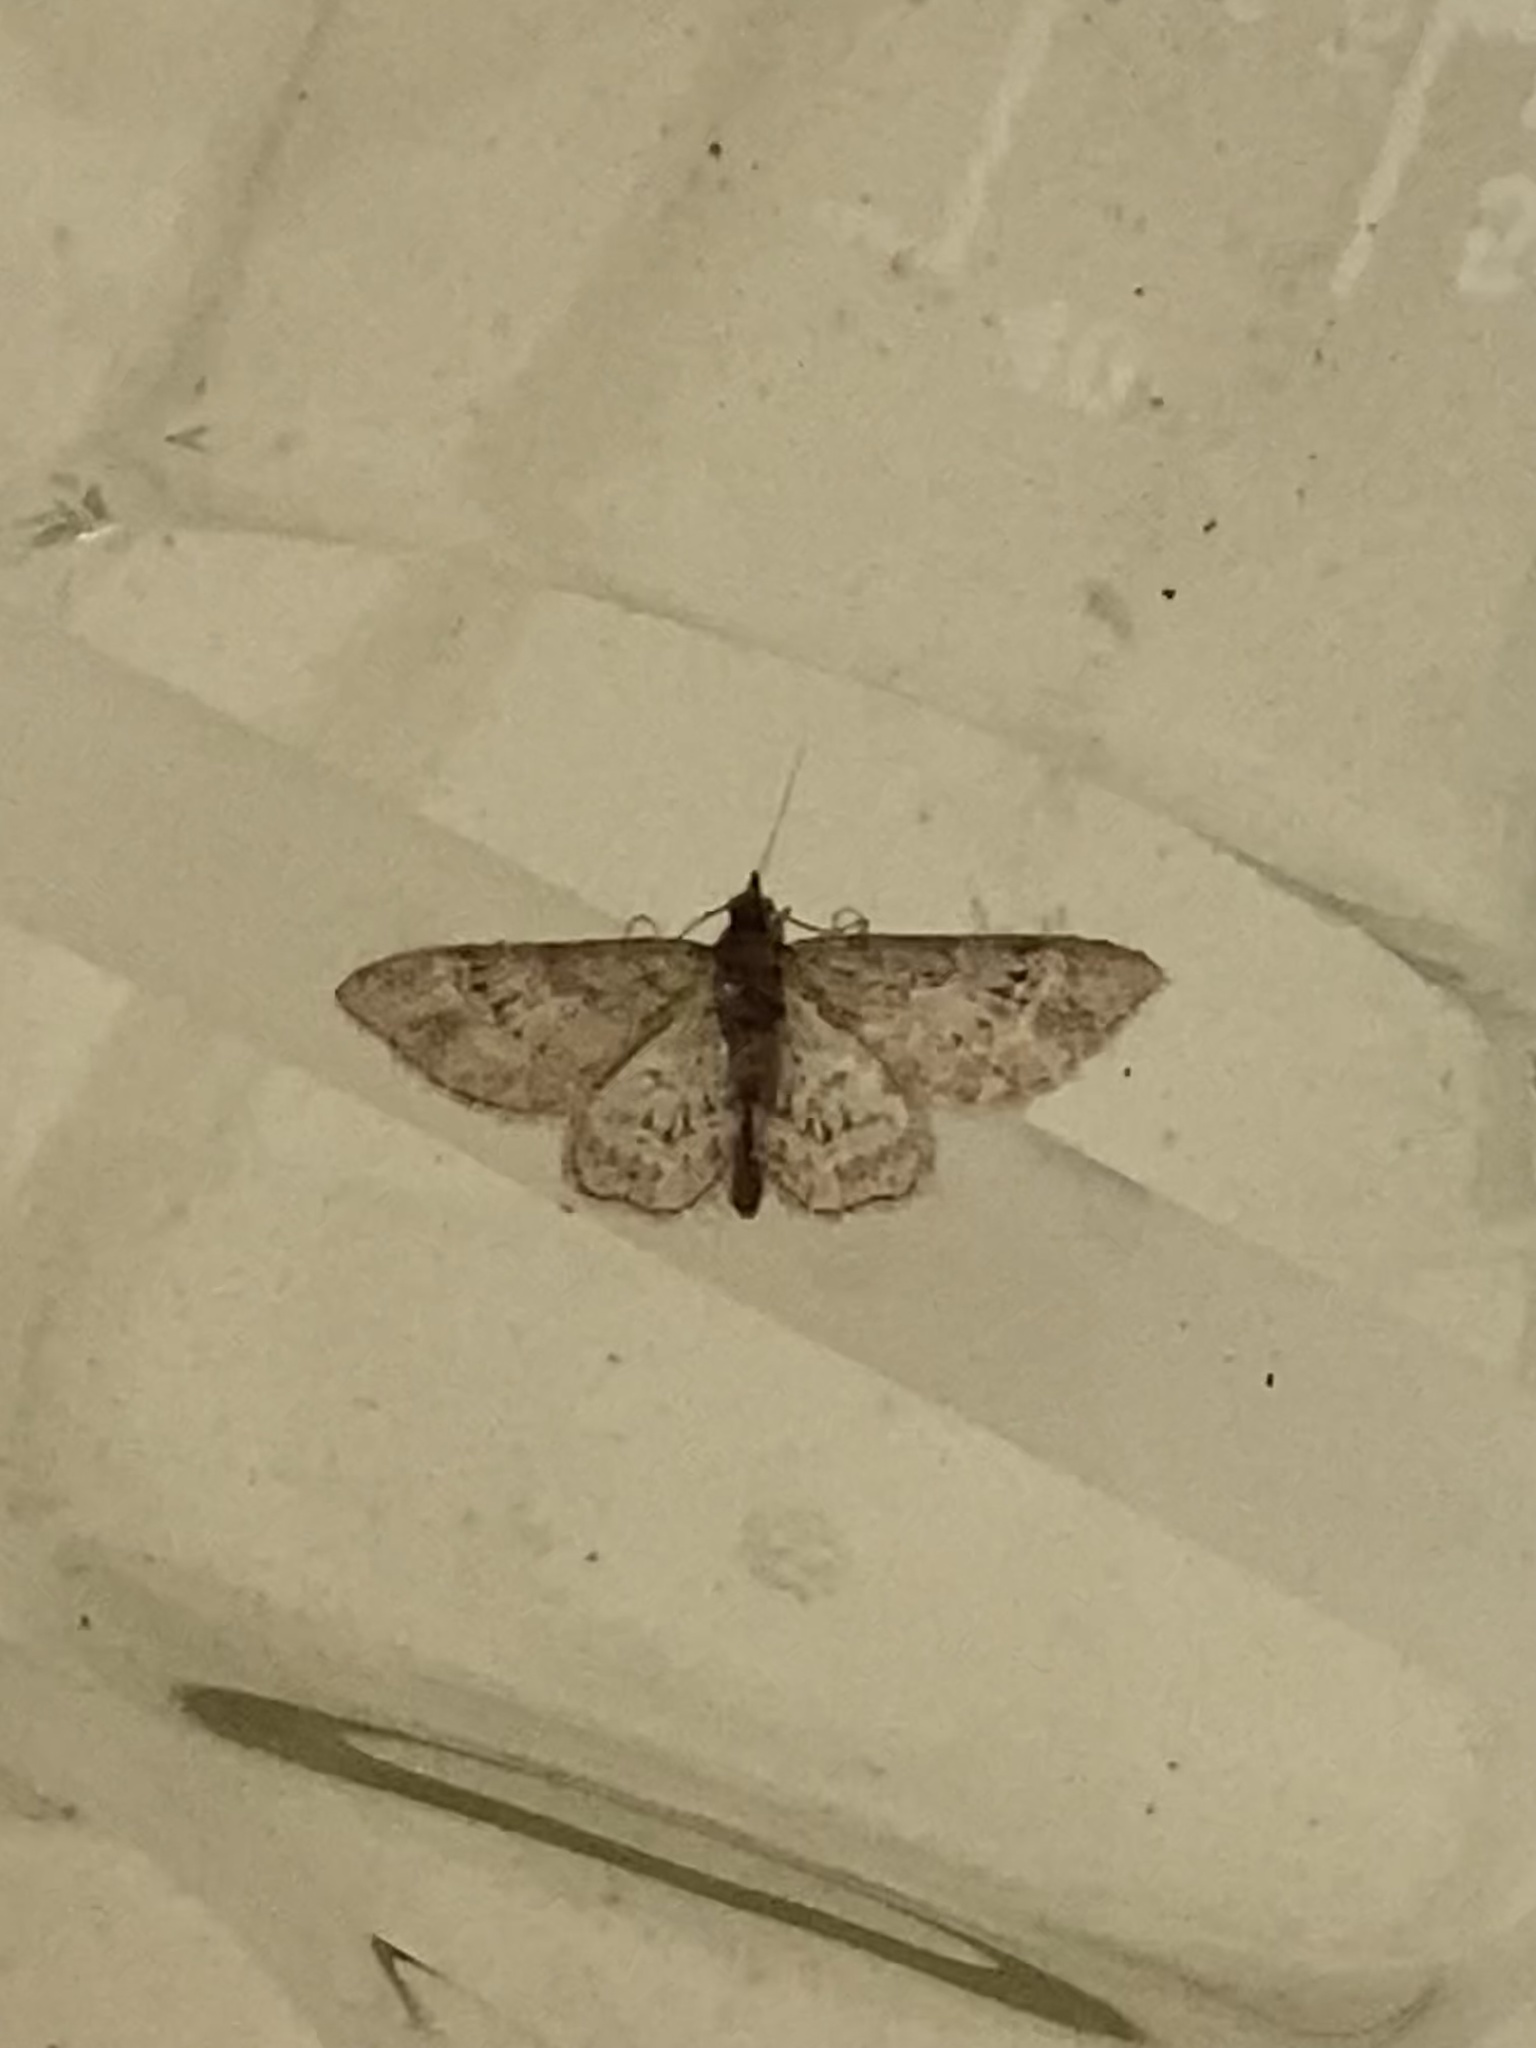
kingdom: Animalia
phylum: Arthropoda
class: Insecta
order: Lepidoptera
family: Geometridae
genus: Gymnoscelis
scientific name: Gymnoscelis rufifasciata
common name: Double-striped pug
